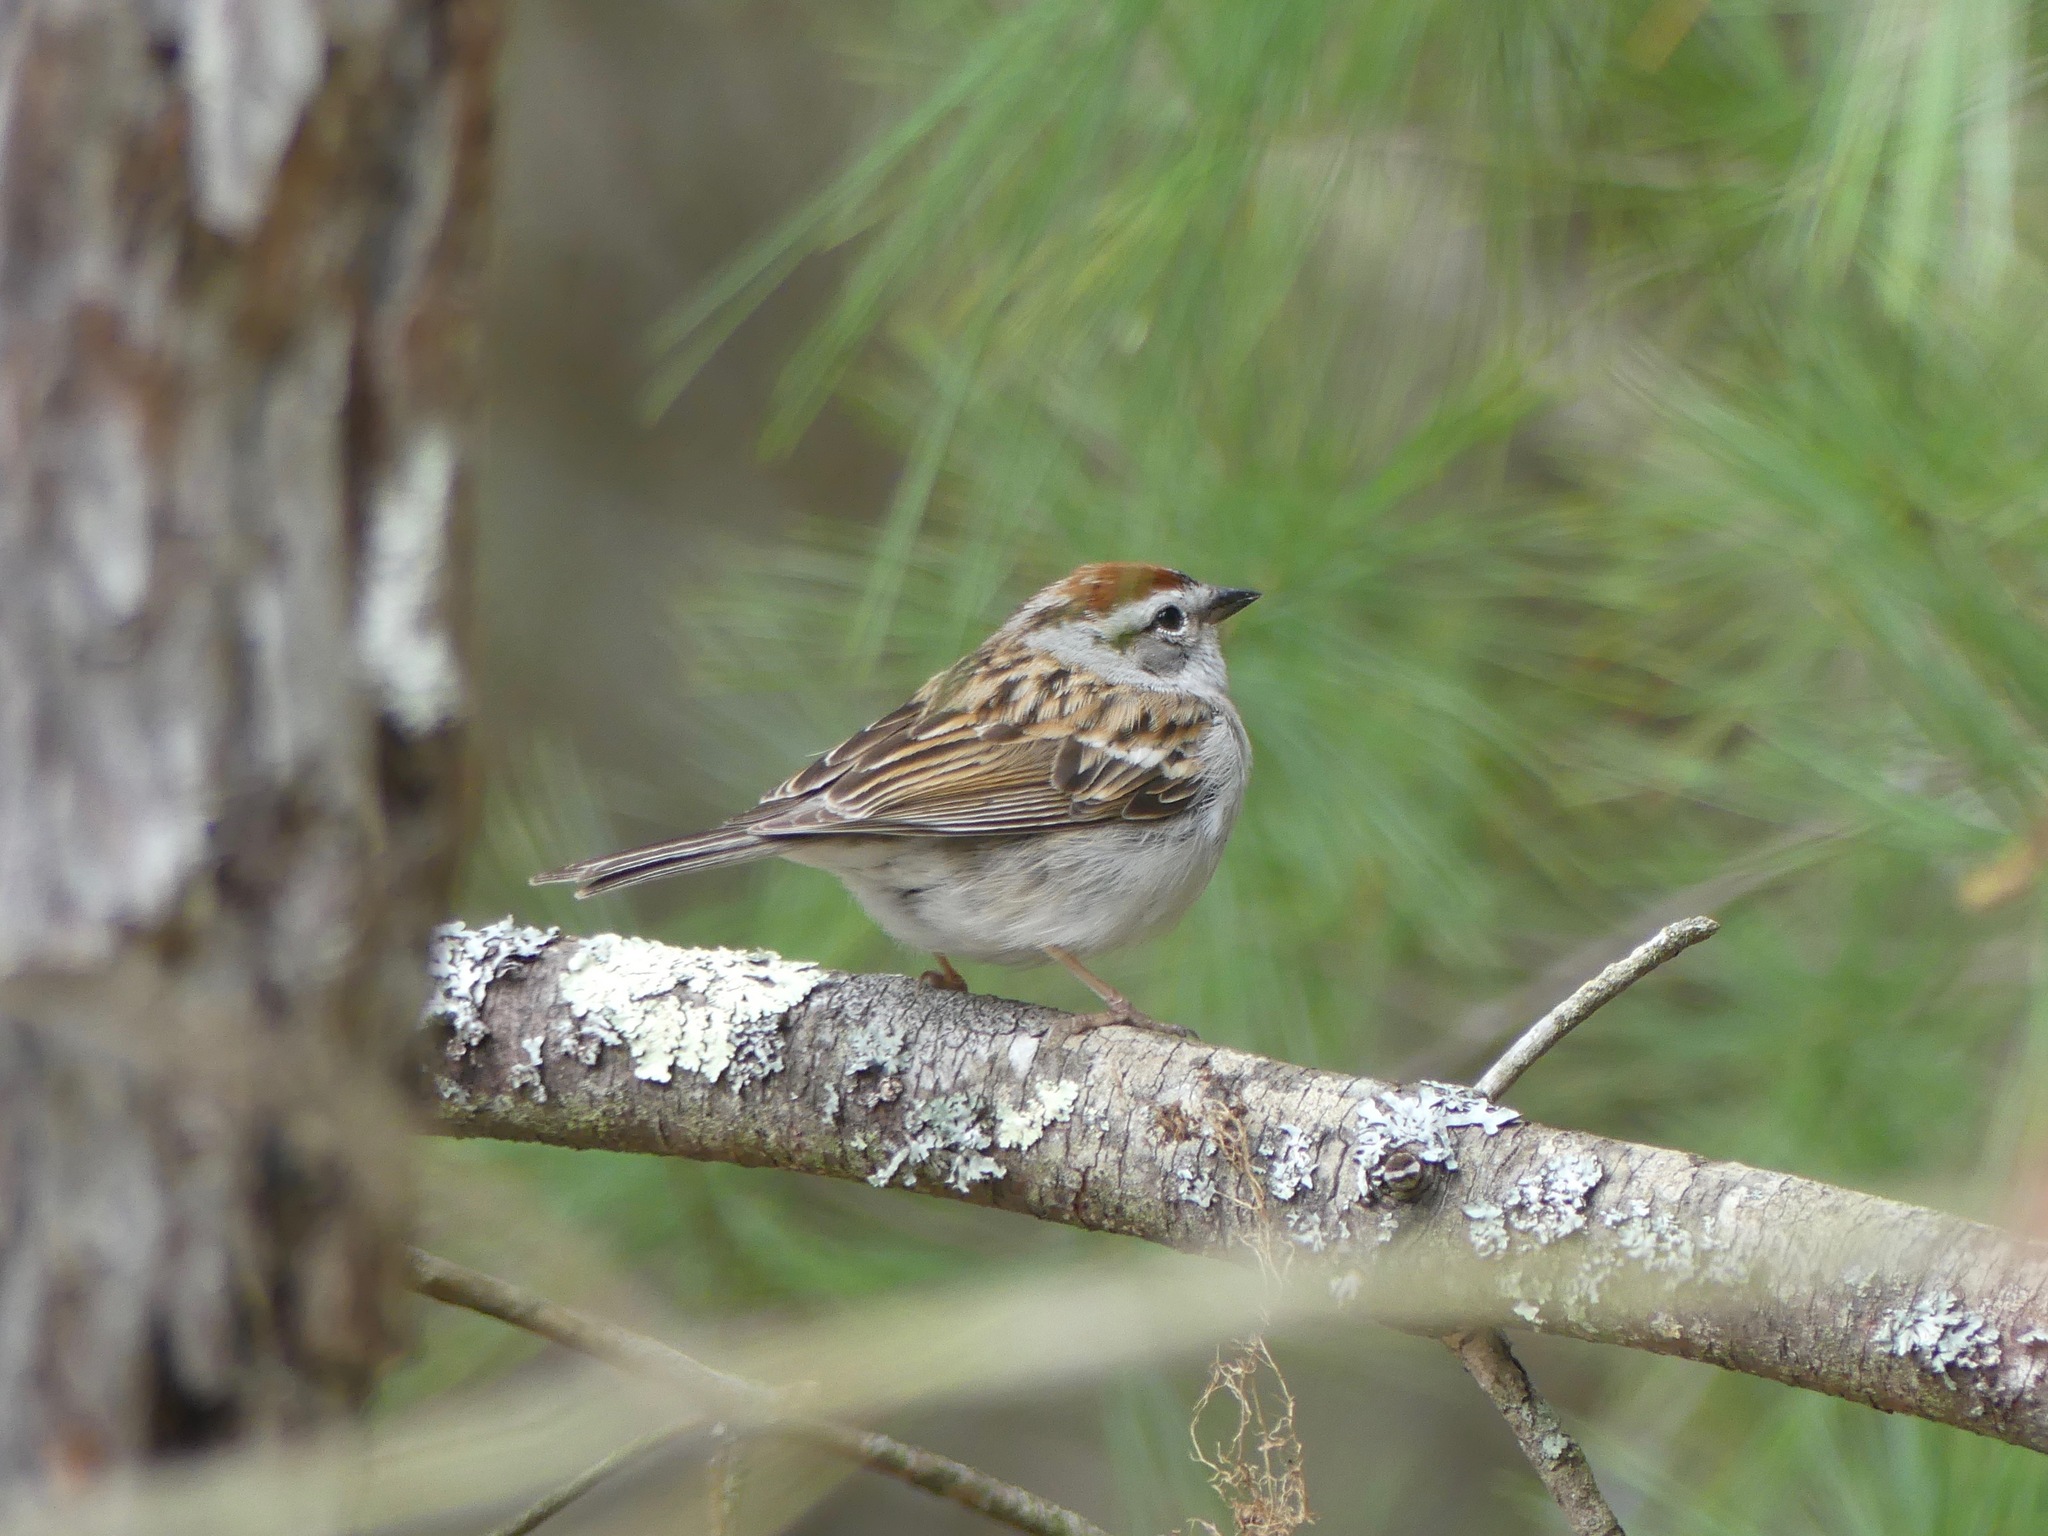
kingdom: Animalia
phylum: Chordata
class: Aves
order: Passeriformes
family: Passerellidae
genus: Spizella
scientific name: Spizella passerina
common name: Chipping sparrow
